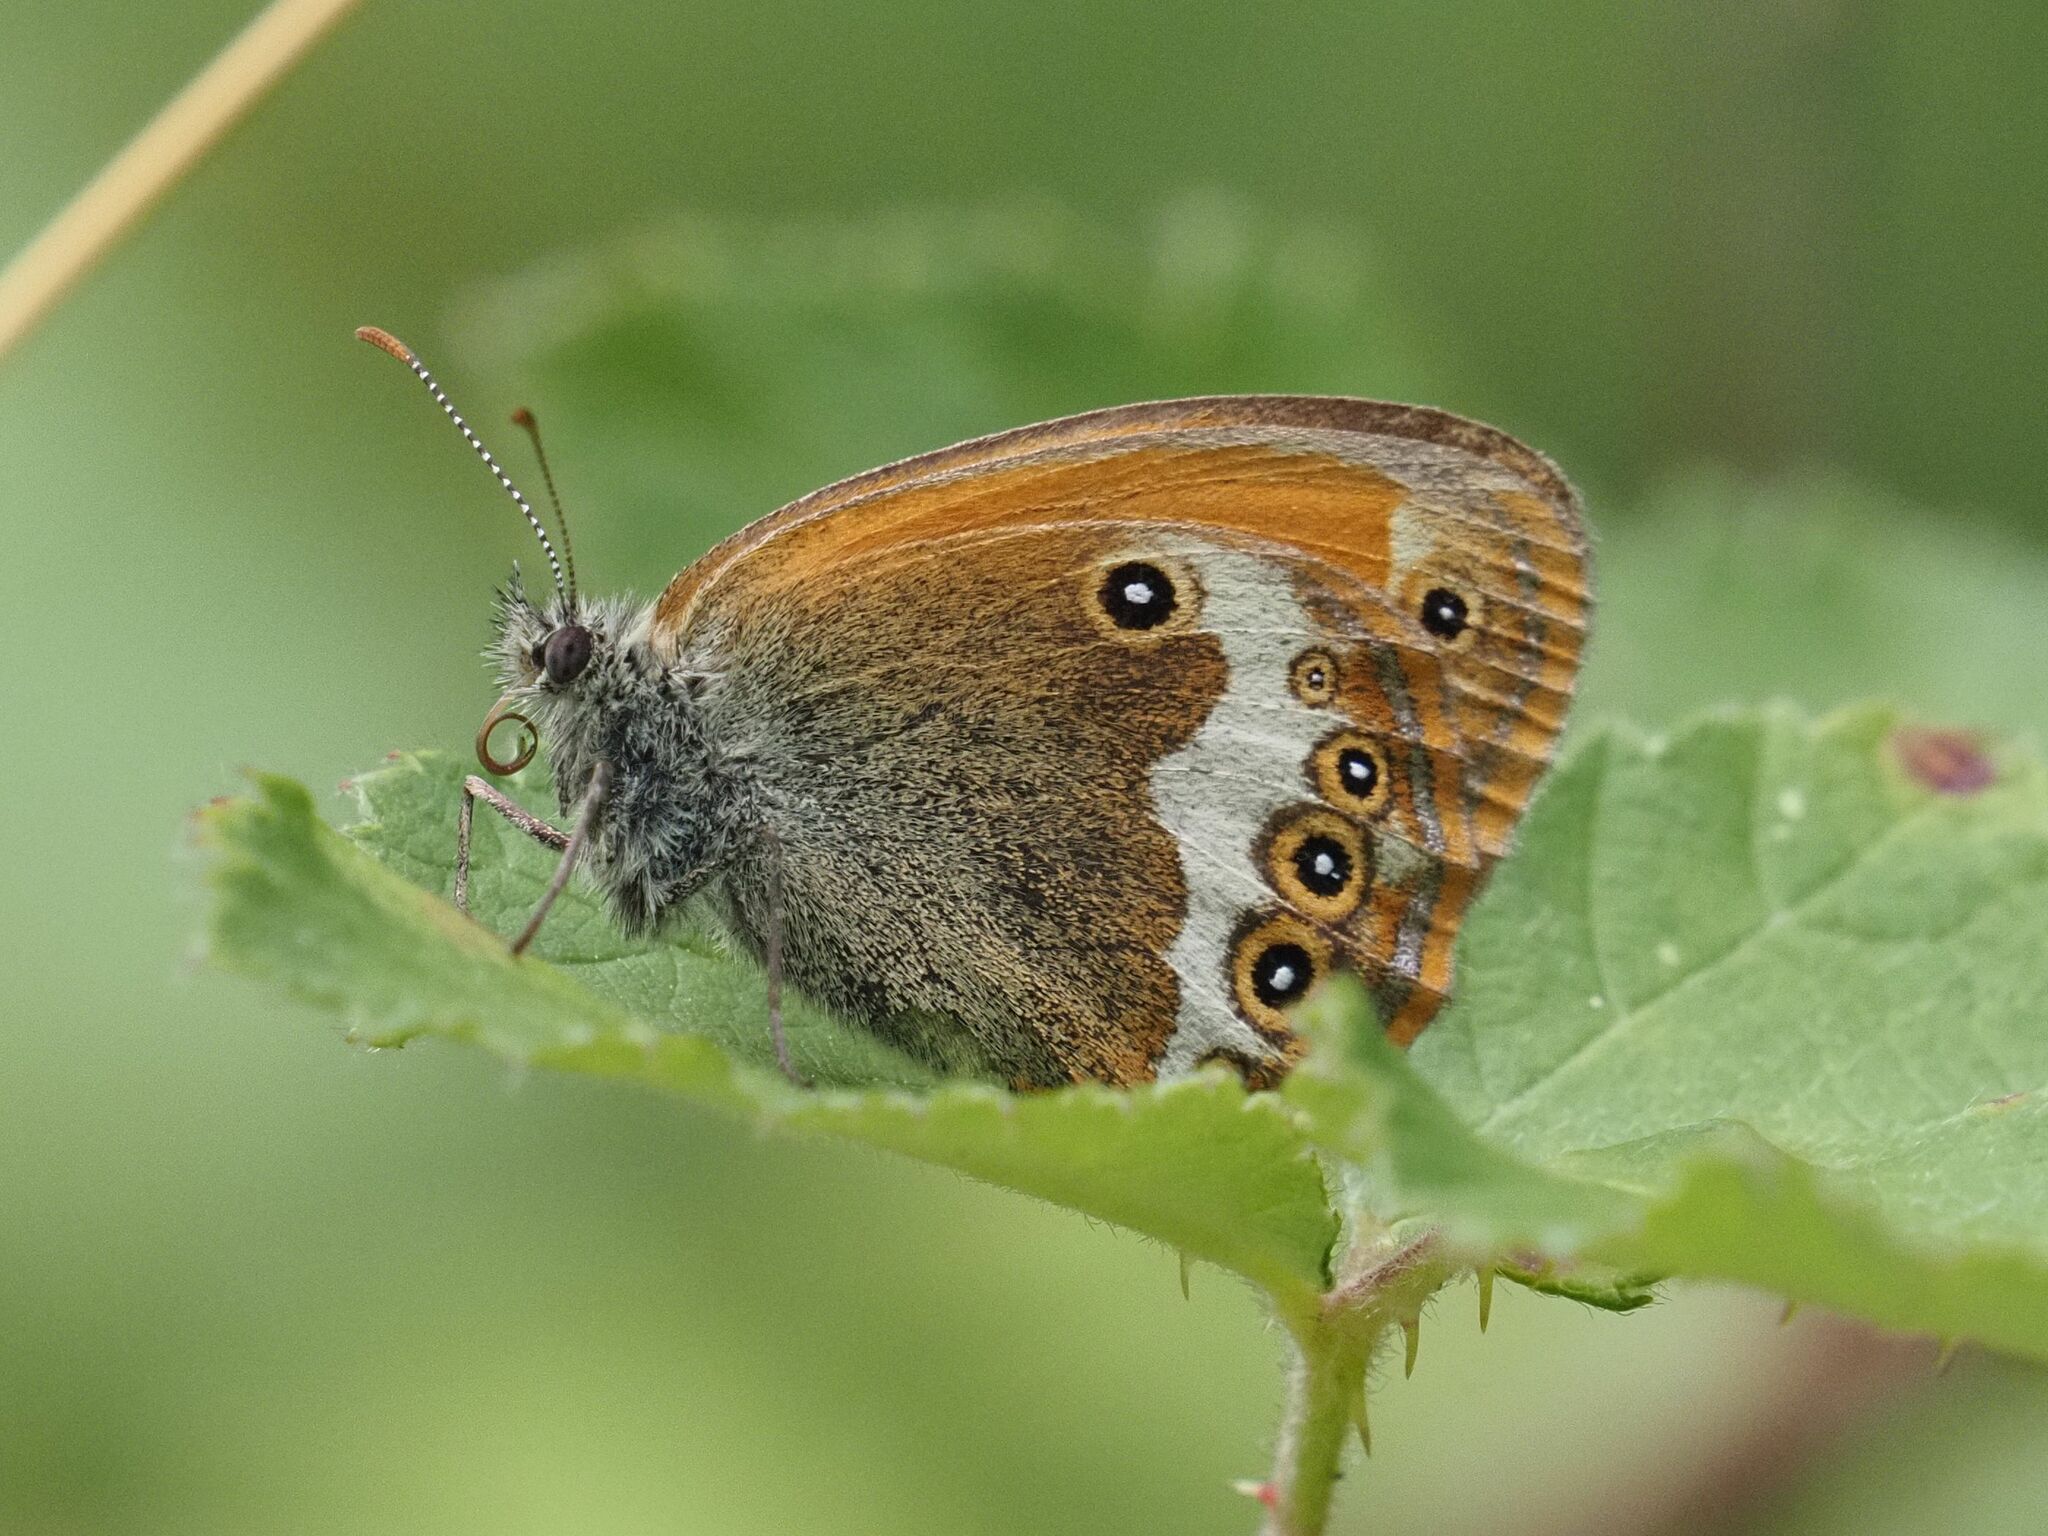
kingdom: Animalia
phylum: Arthropoda
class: Insecta
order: Lepidoptera
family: Nymphalidae
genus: Coenonympha
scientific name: Coenonympha arcania
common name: Pearly heath
